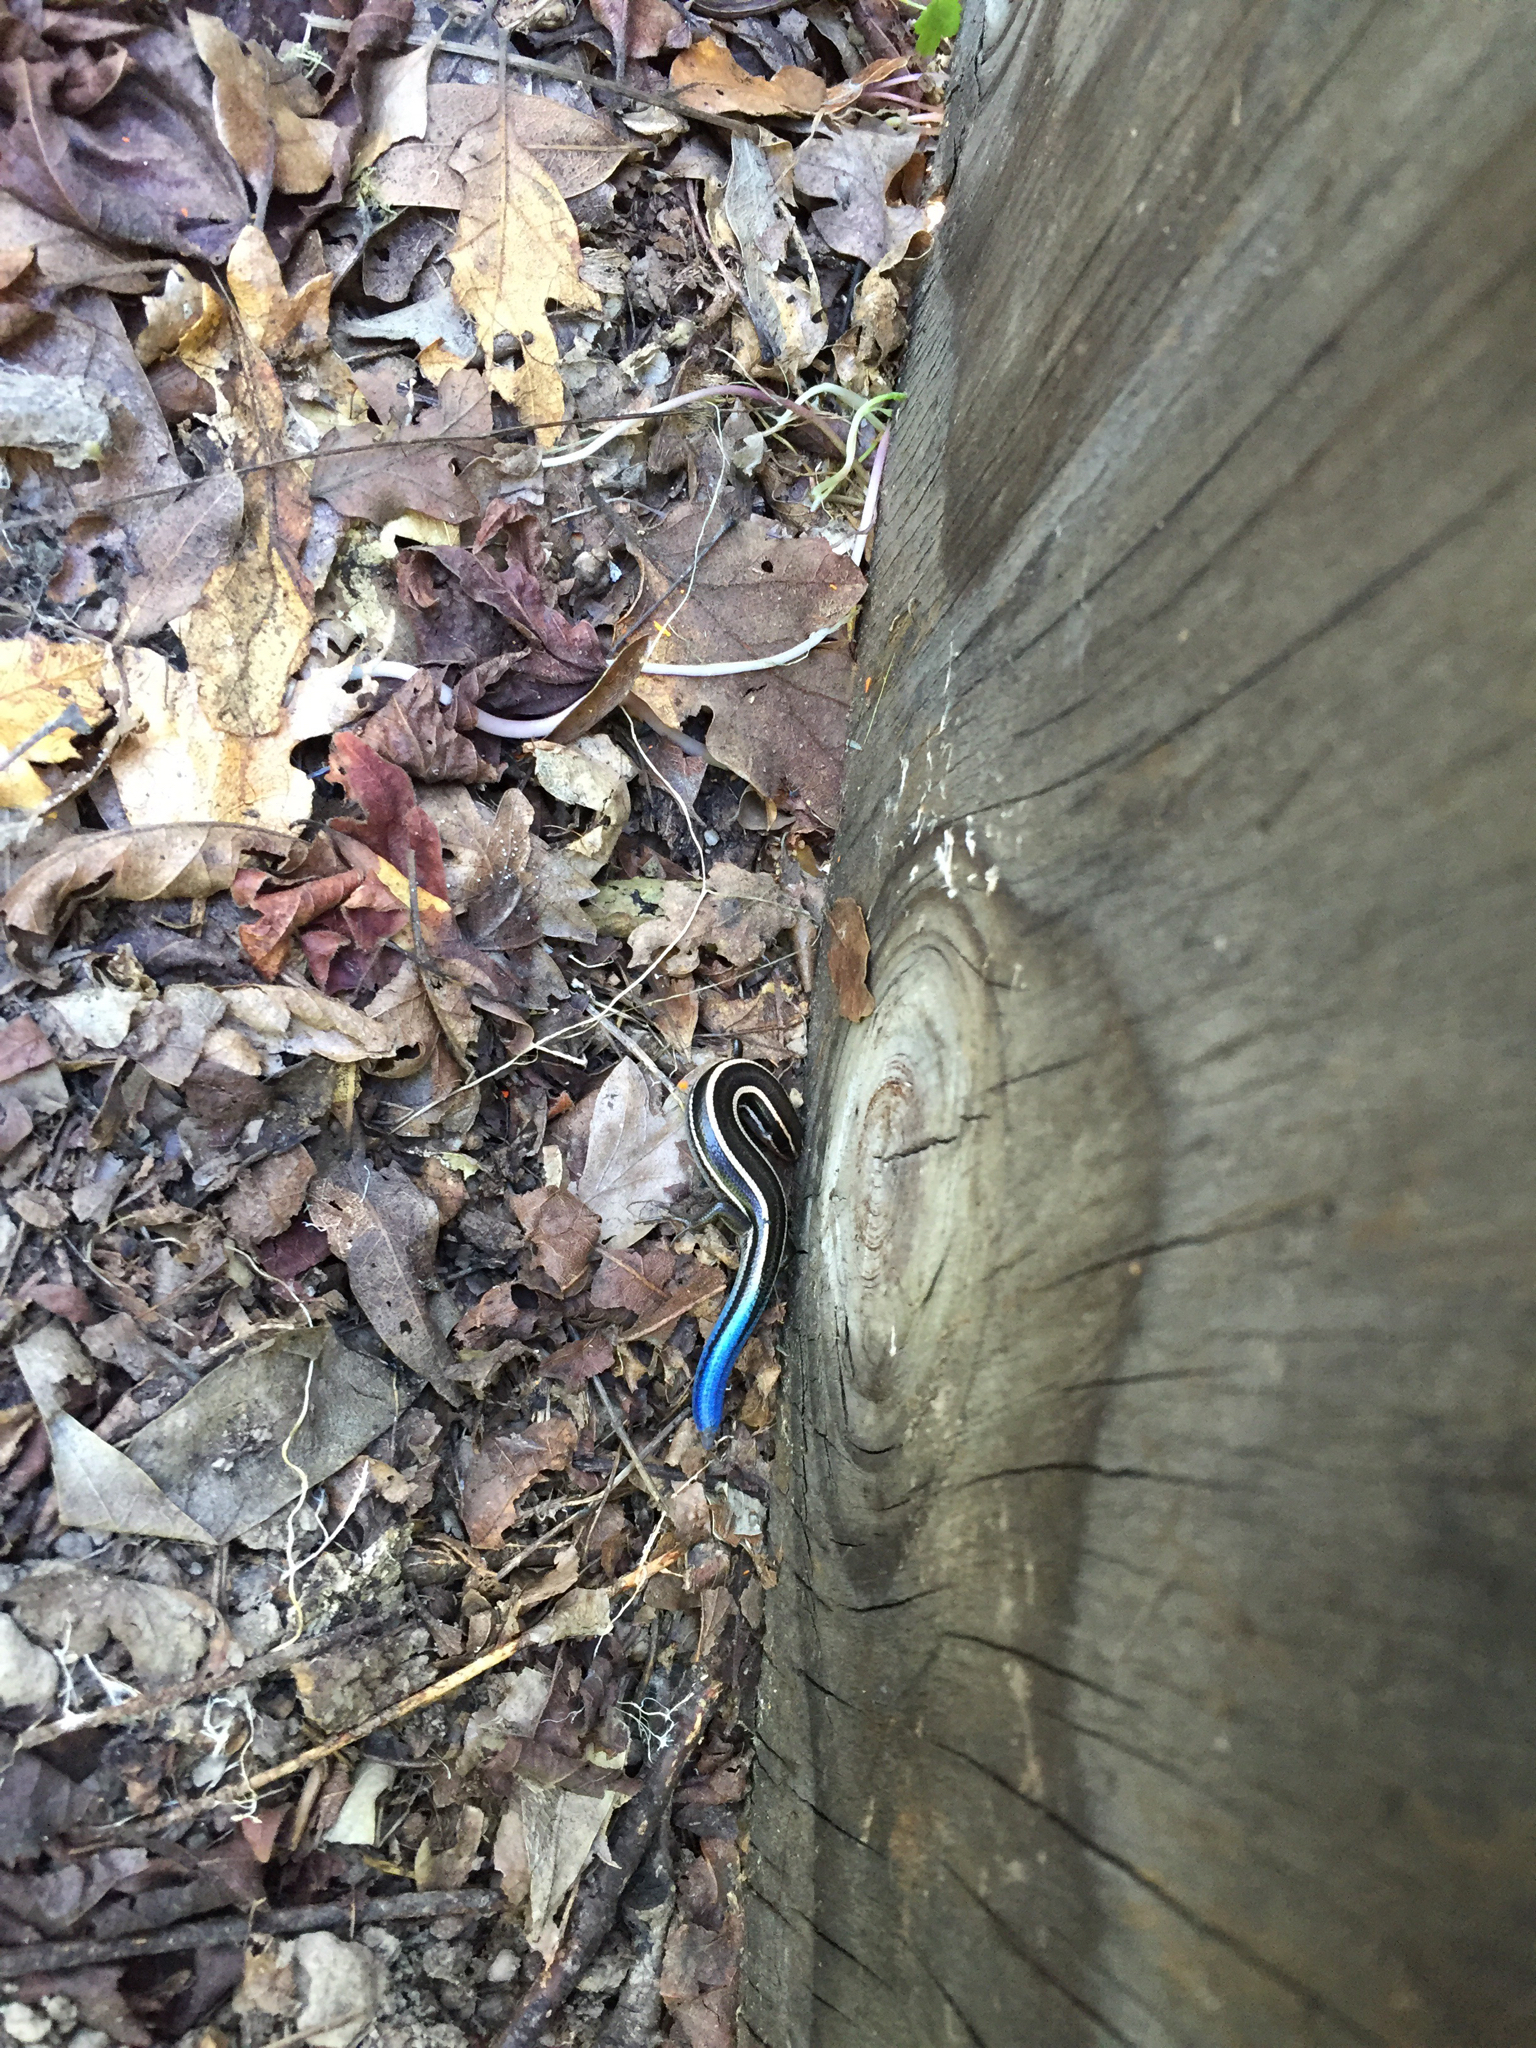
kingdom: Animalia
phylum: Chordata
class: Squamata
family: Scincidae
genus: Plestiodon
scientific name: Plestiodon skiltonianus
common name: Coronado island skink [interparietalis]
